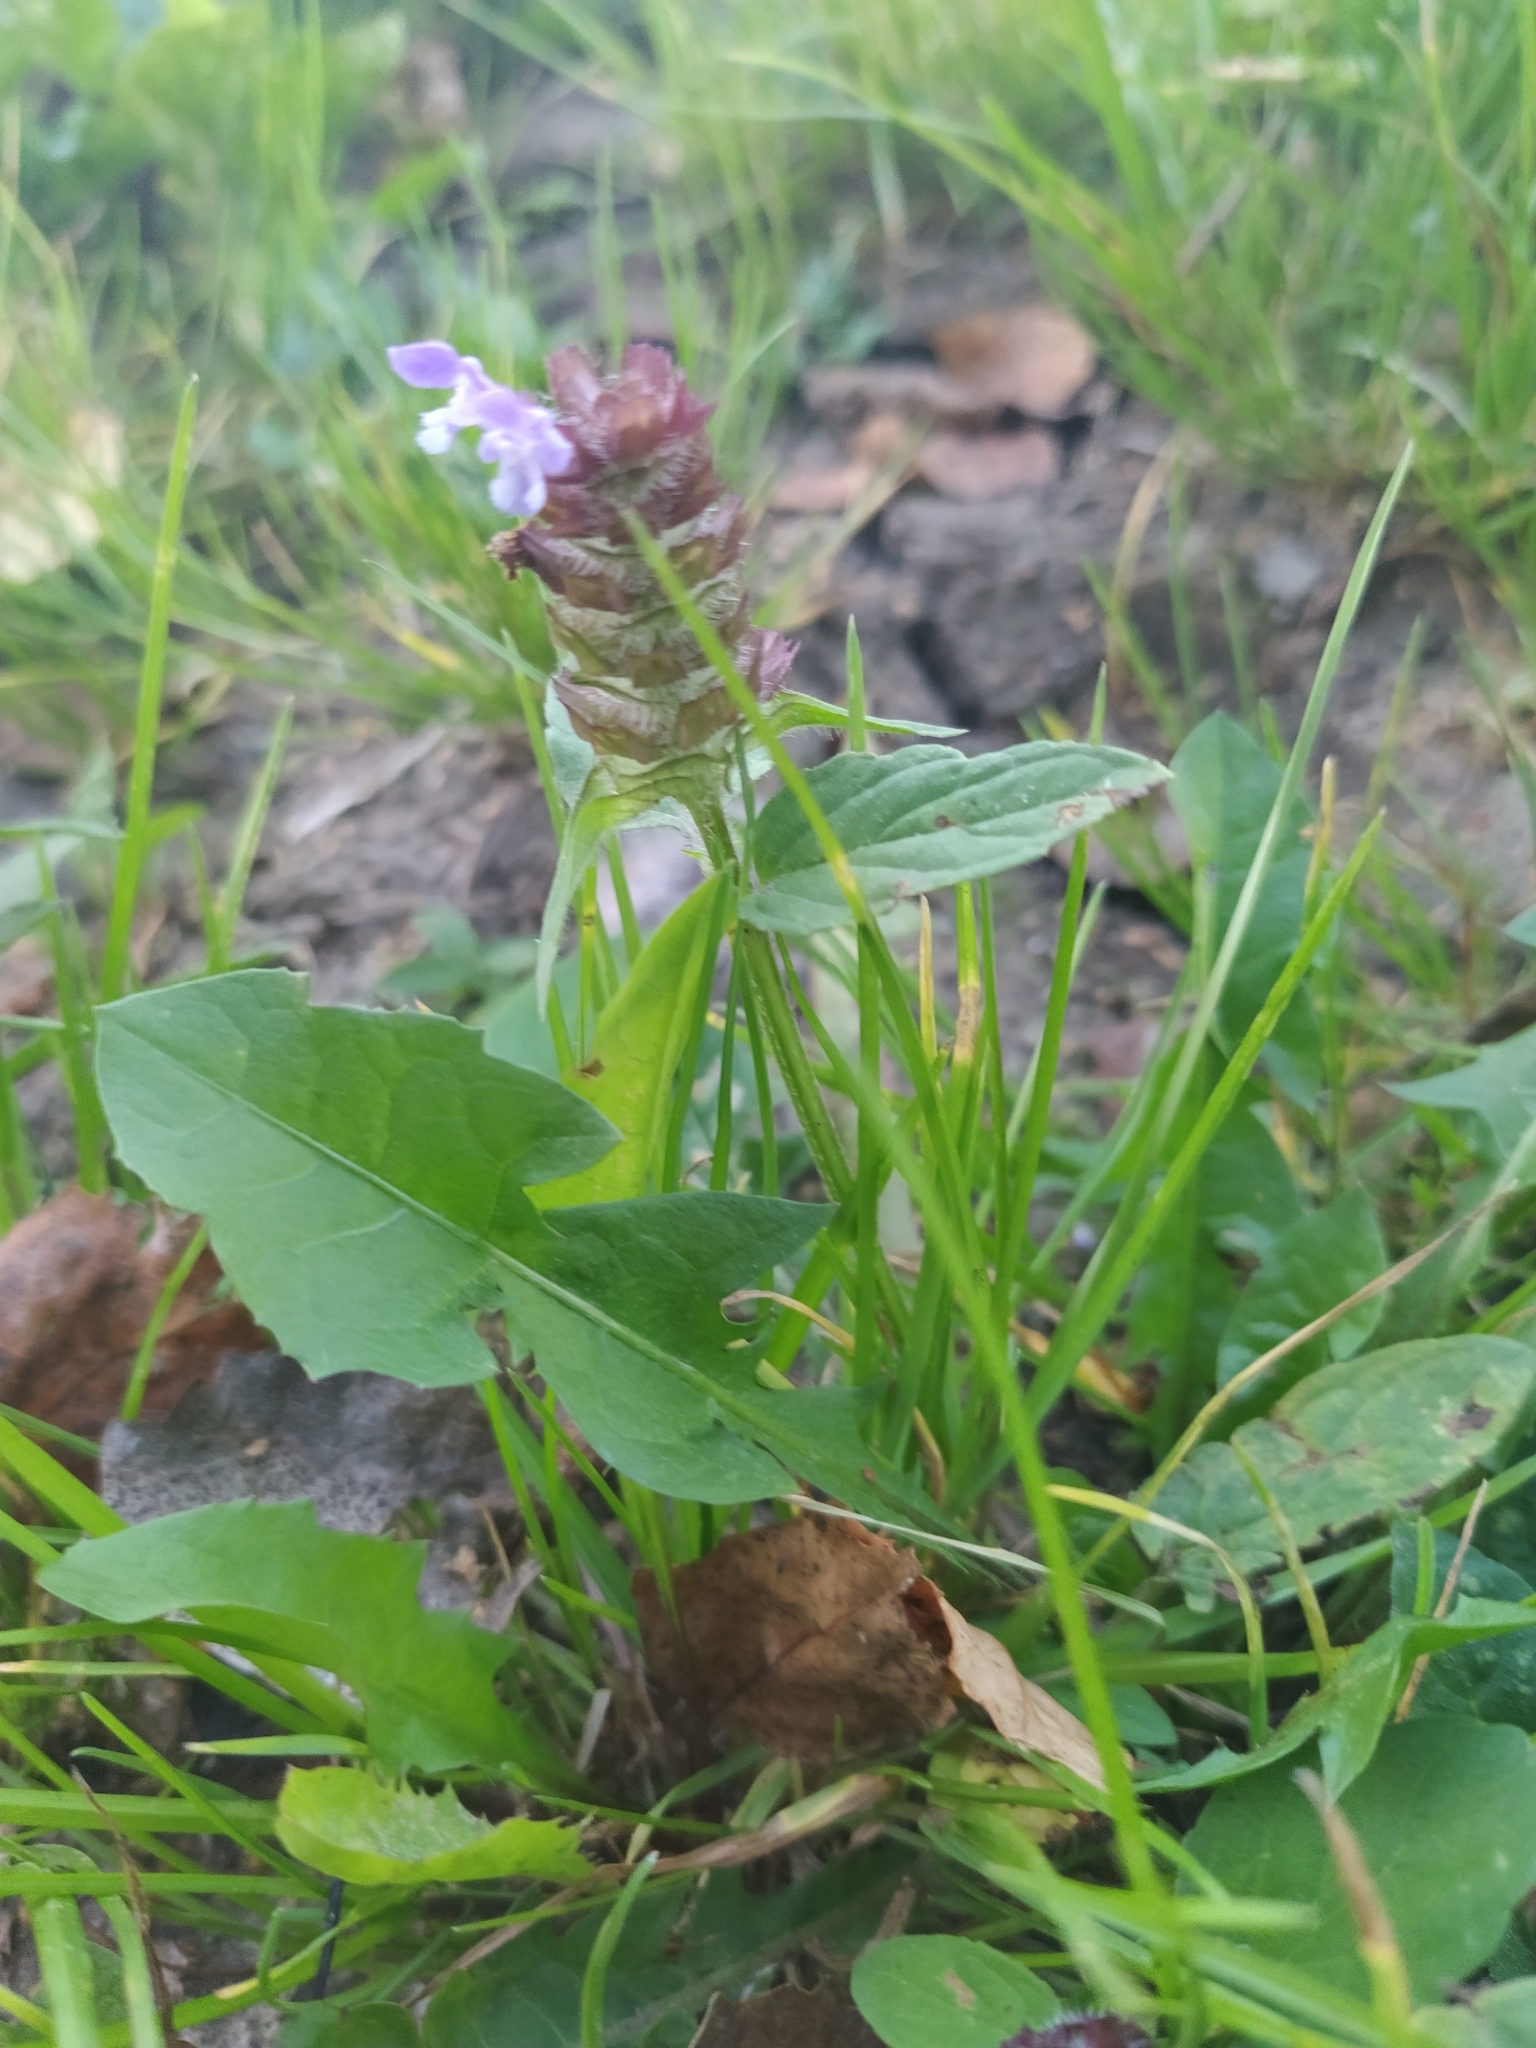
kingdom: Plantae
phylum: Tracheophyta
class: Magnoliopsida
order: Lamiales
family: Lamiaceae
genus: Prunella
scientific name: Prunella vulgaris
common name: Heal-all
